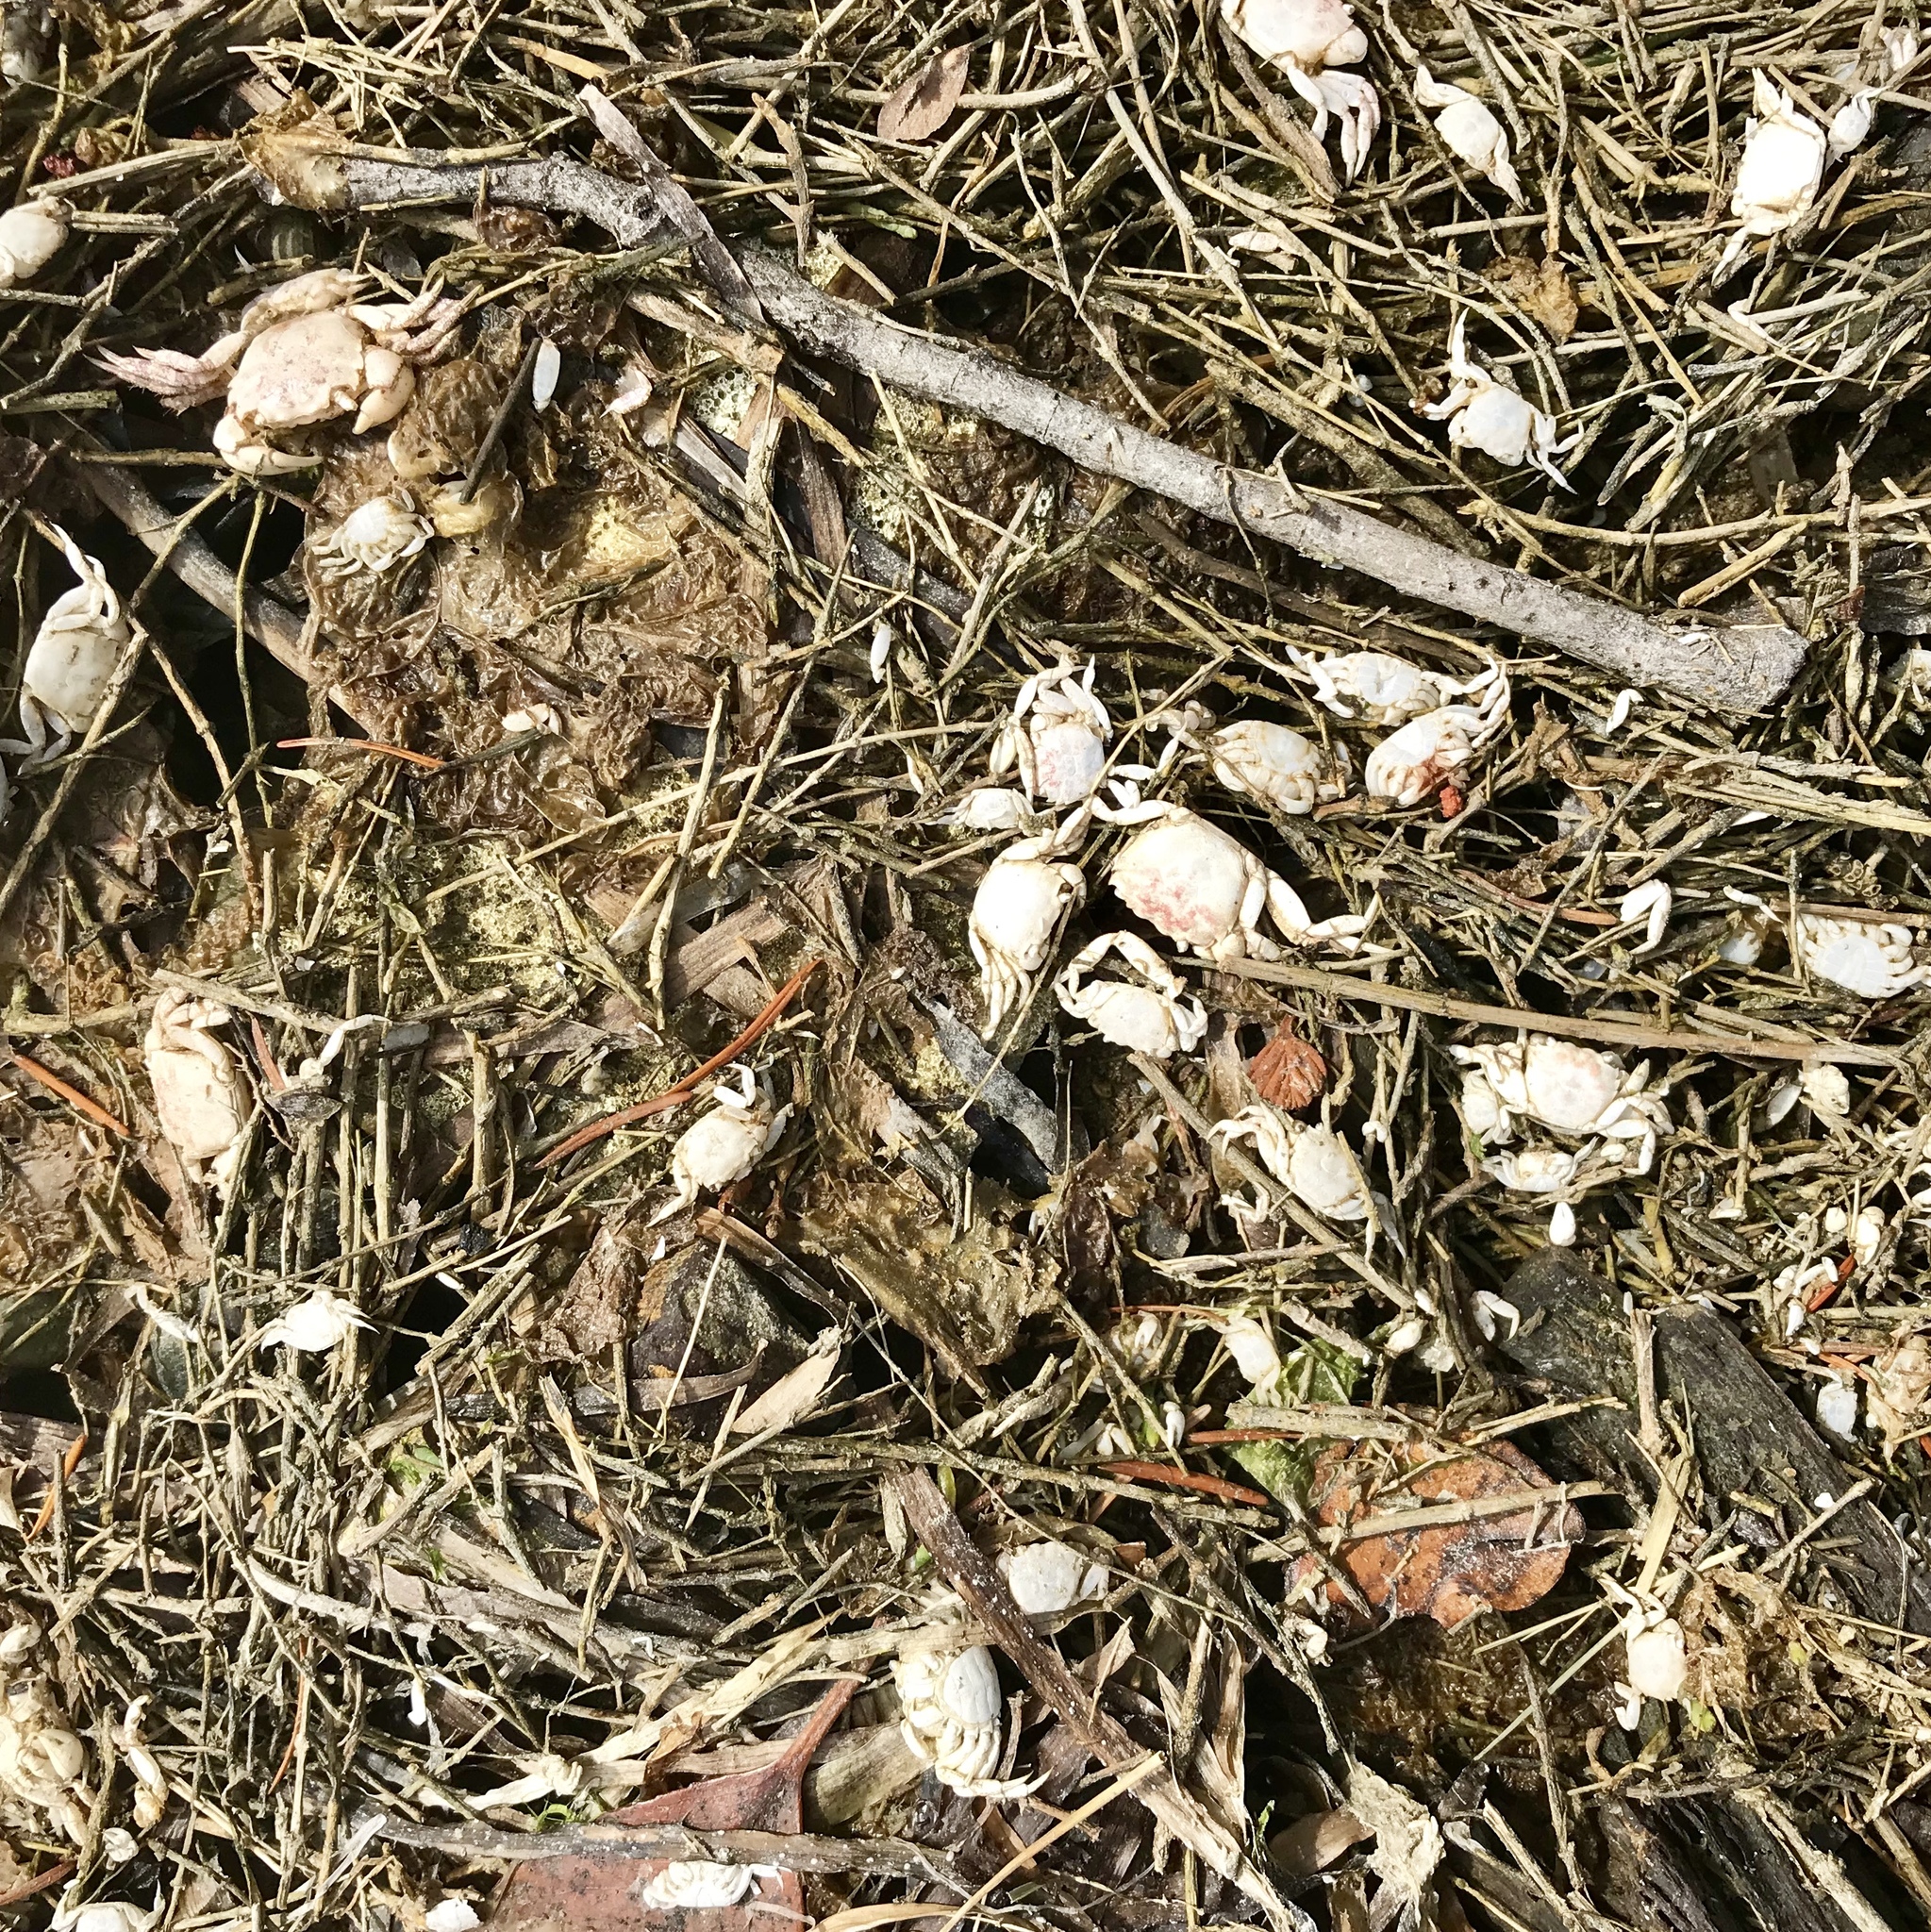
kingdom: Animalia
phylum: Arthropoda
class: Malacostraca
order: Decapoda
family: Varunidae
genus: Hemigrapsus
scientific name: Hemigrapsus oregonensis
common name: Yellow shore crab
